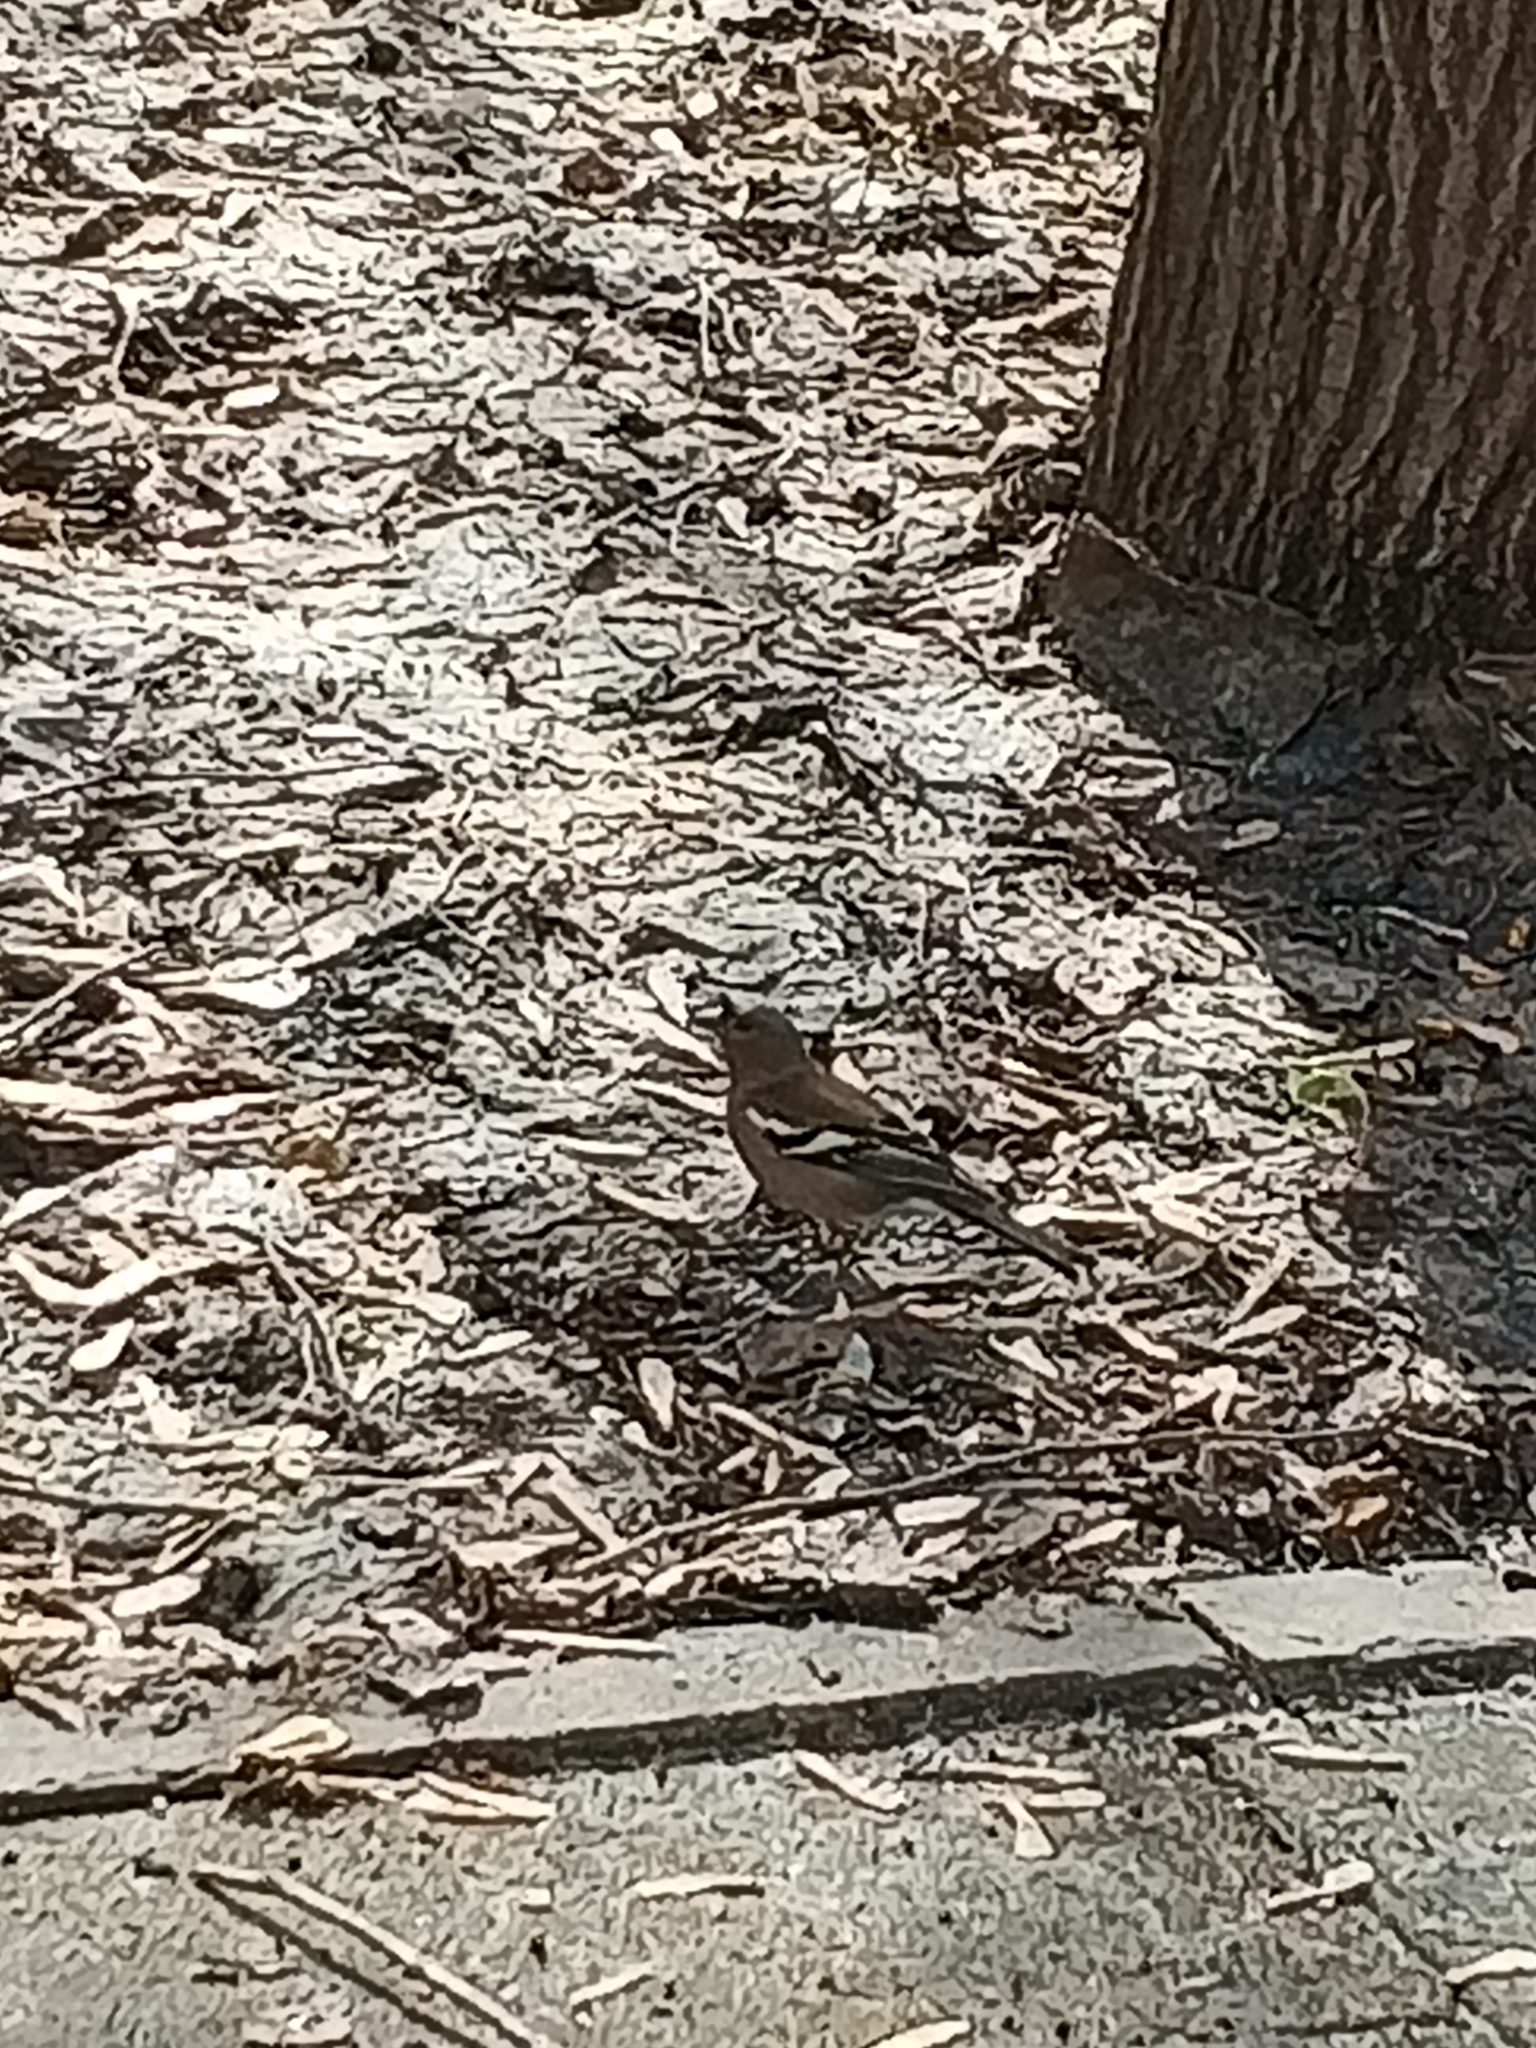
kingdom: Animalia
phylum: Chordata
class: Aves
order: Passeriformes
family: Fringillidae
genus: Fringilla
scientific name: Fringilla coelebs
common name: Common chaffinch
